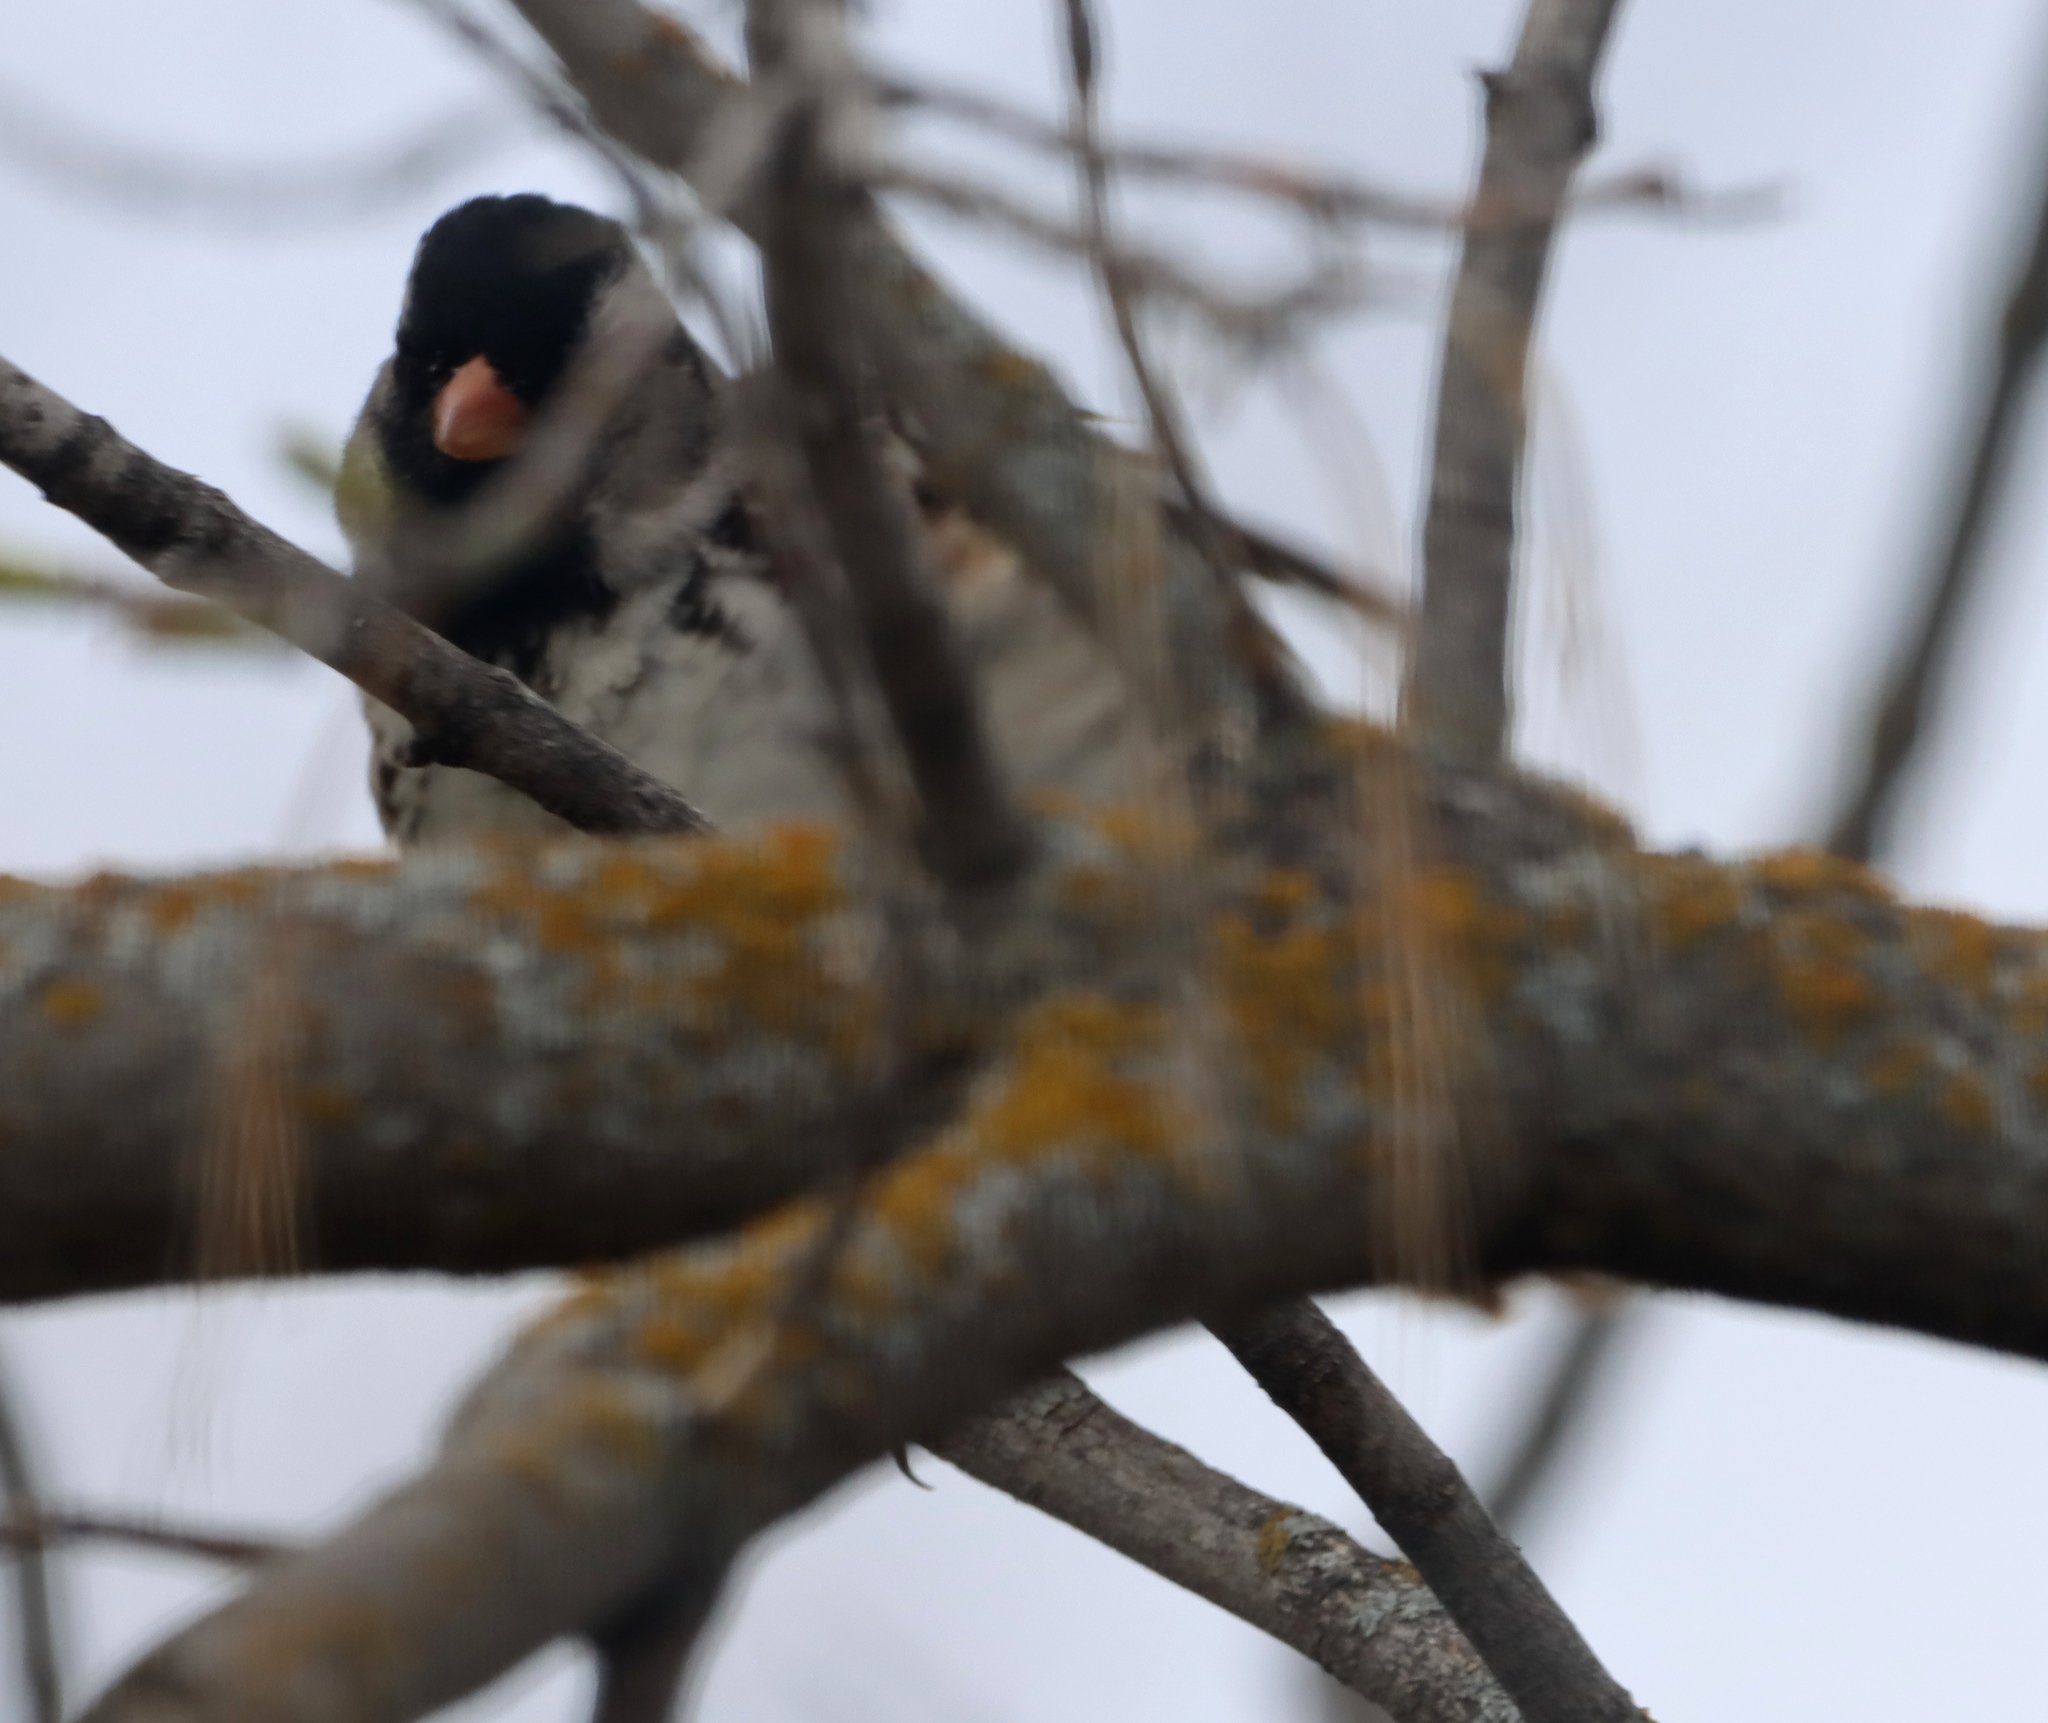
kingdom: Animalia
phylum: Chordata
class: Aves
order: Passeriformes
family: Passerellidae
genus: Zonotrichia
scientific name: Zonotrichia querula
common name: Harris's sparrow
